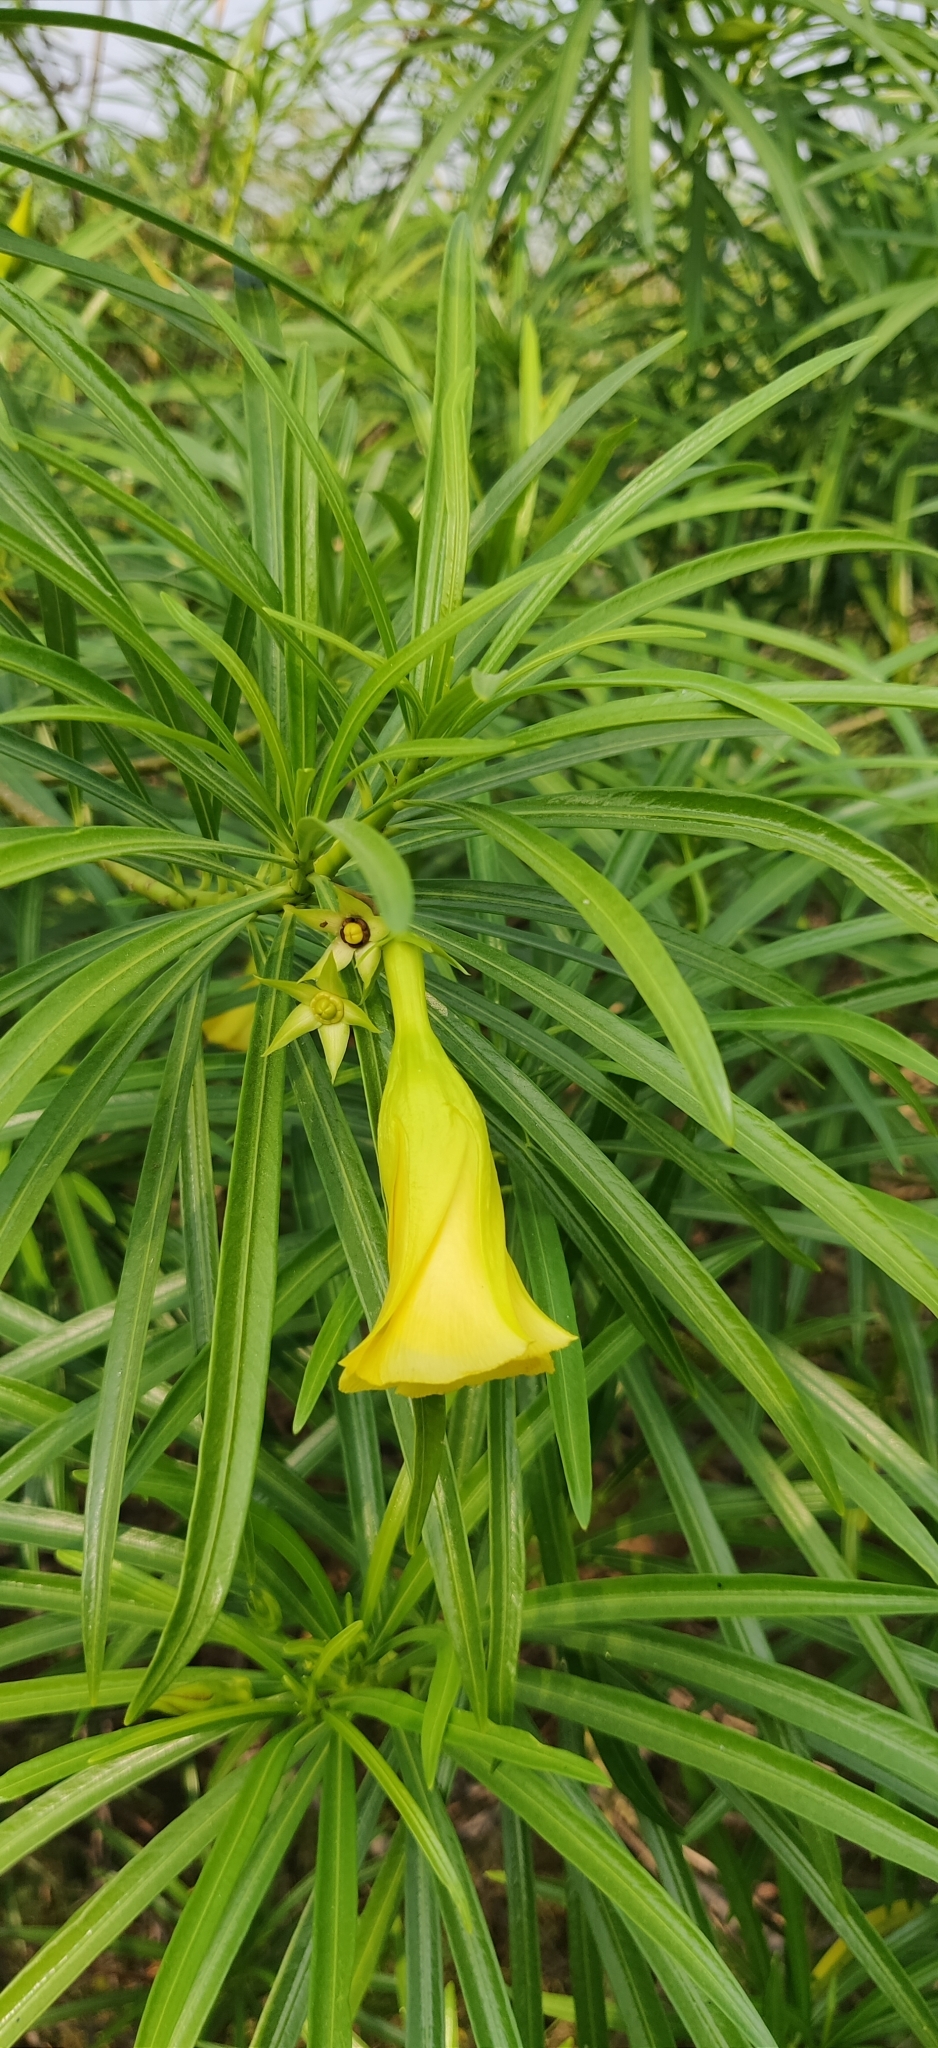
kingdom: Plantae
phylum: Tracheophyta
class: Magnoliopsida
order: Gentianales
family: Apocynaceae
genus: Cascabela
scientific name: Cascabela thevetia
